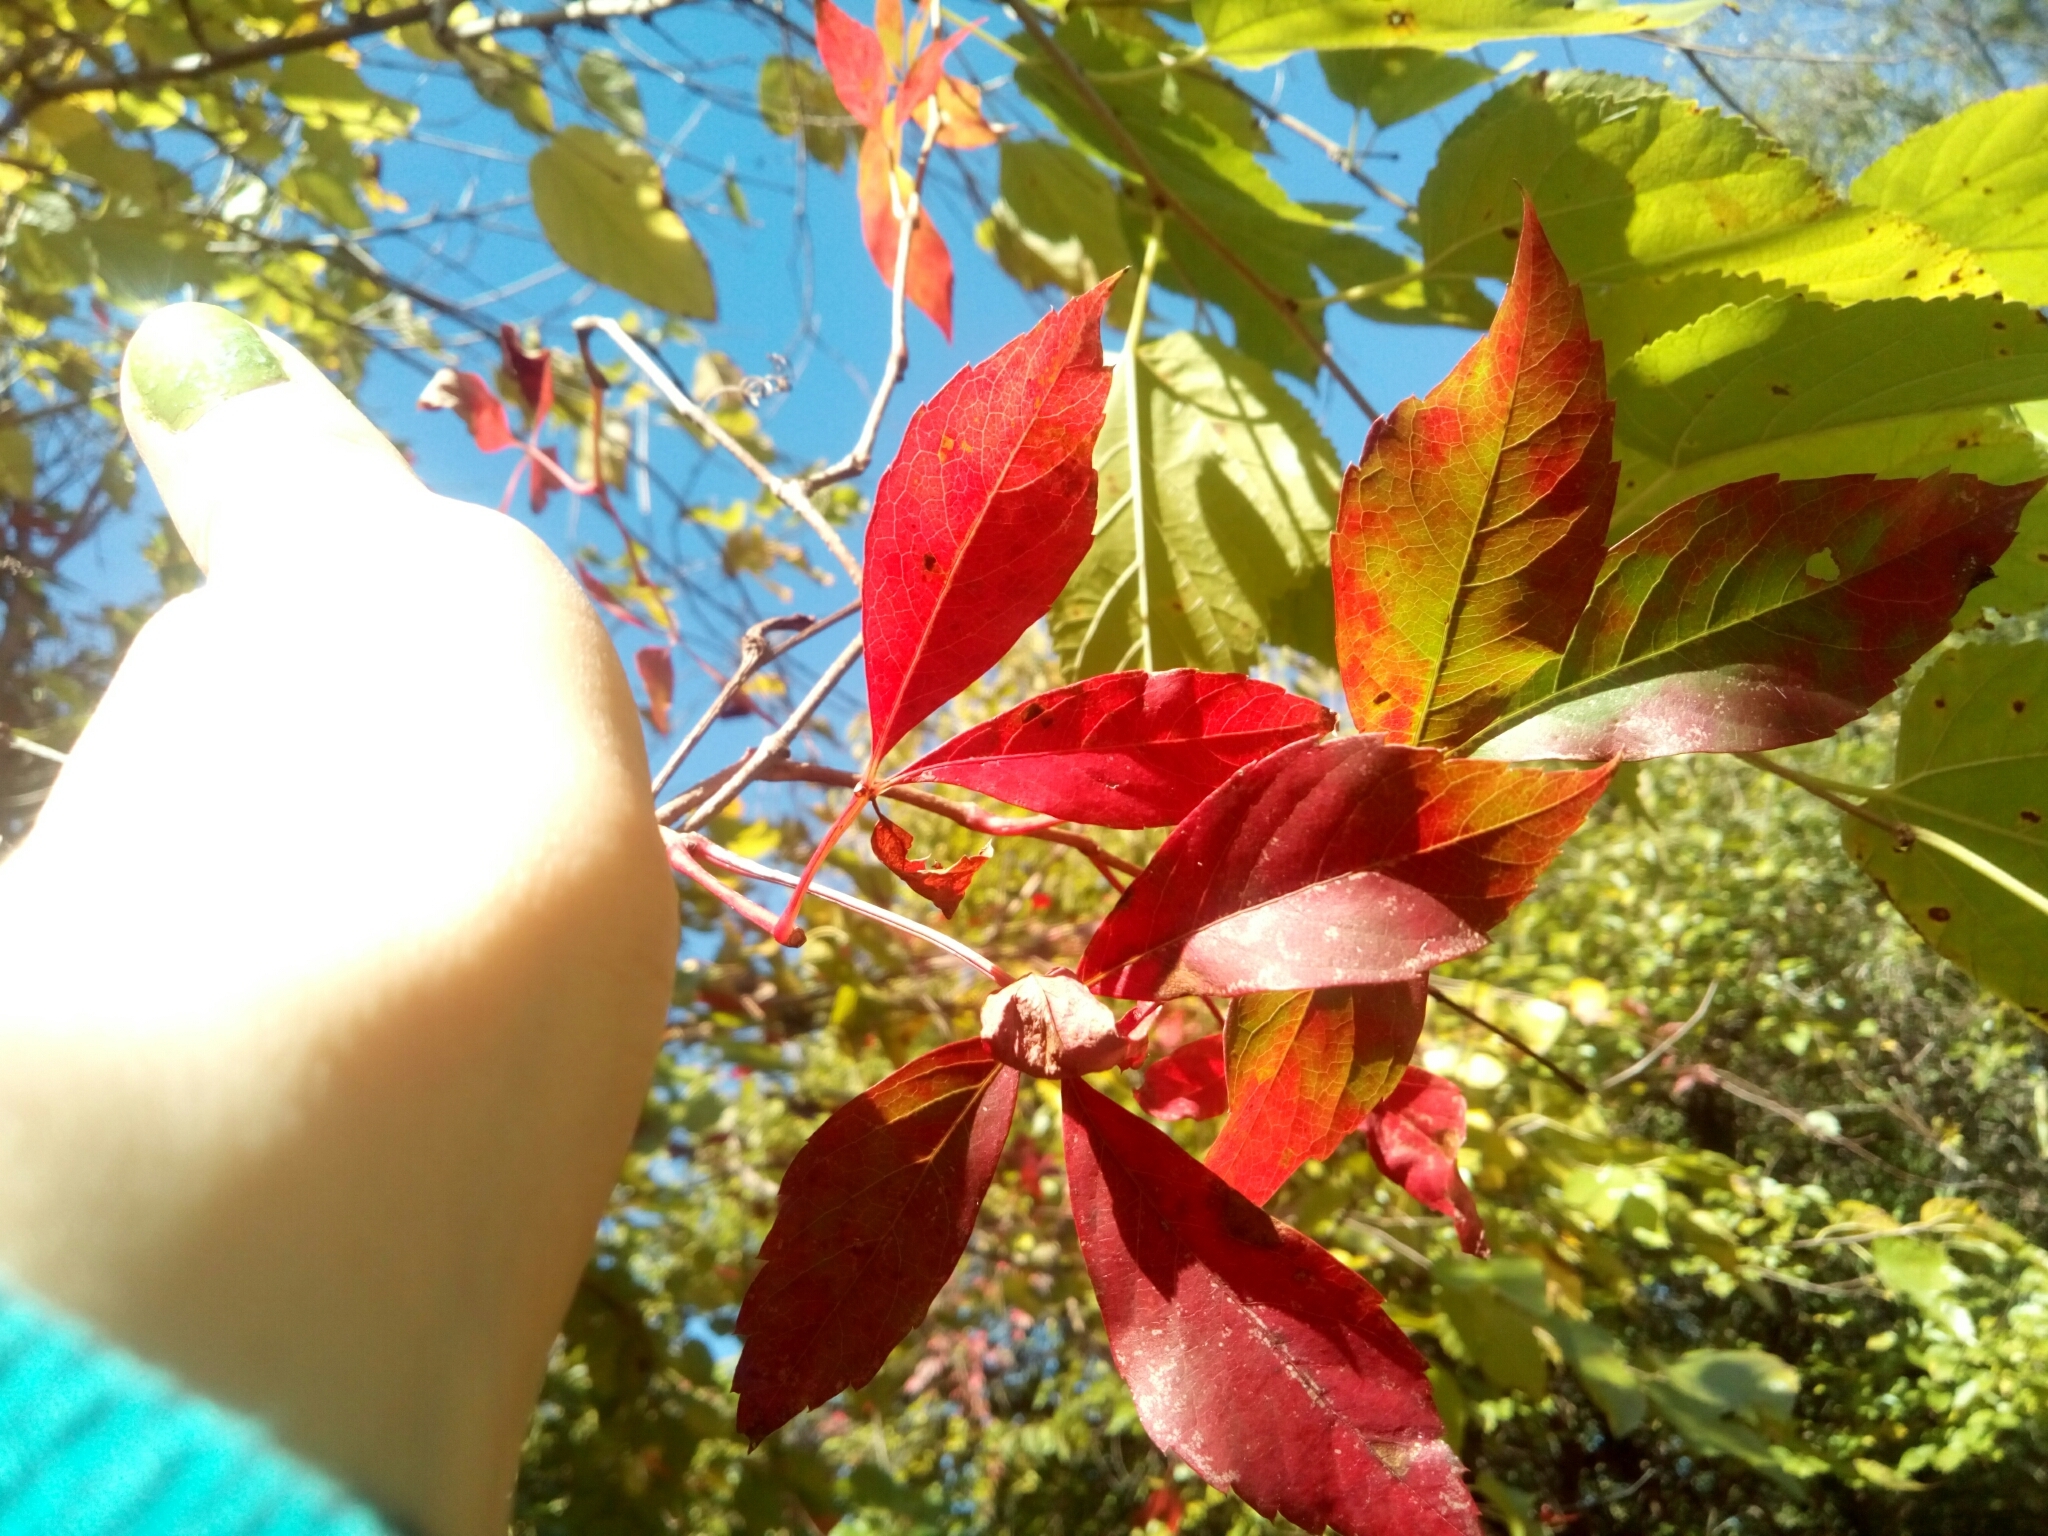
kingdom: Plantae
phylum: Tracheophyta
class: Magnoliopsida
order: Vitales
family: Vitaceae
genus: Parthenocissus
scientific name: Parthenocissus quinquefolia
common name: Virginia-creeper
